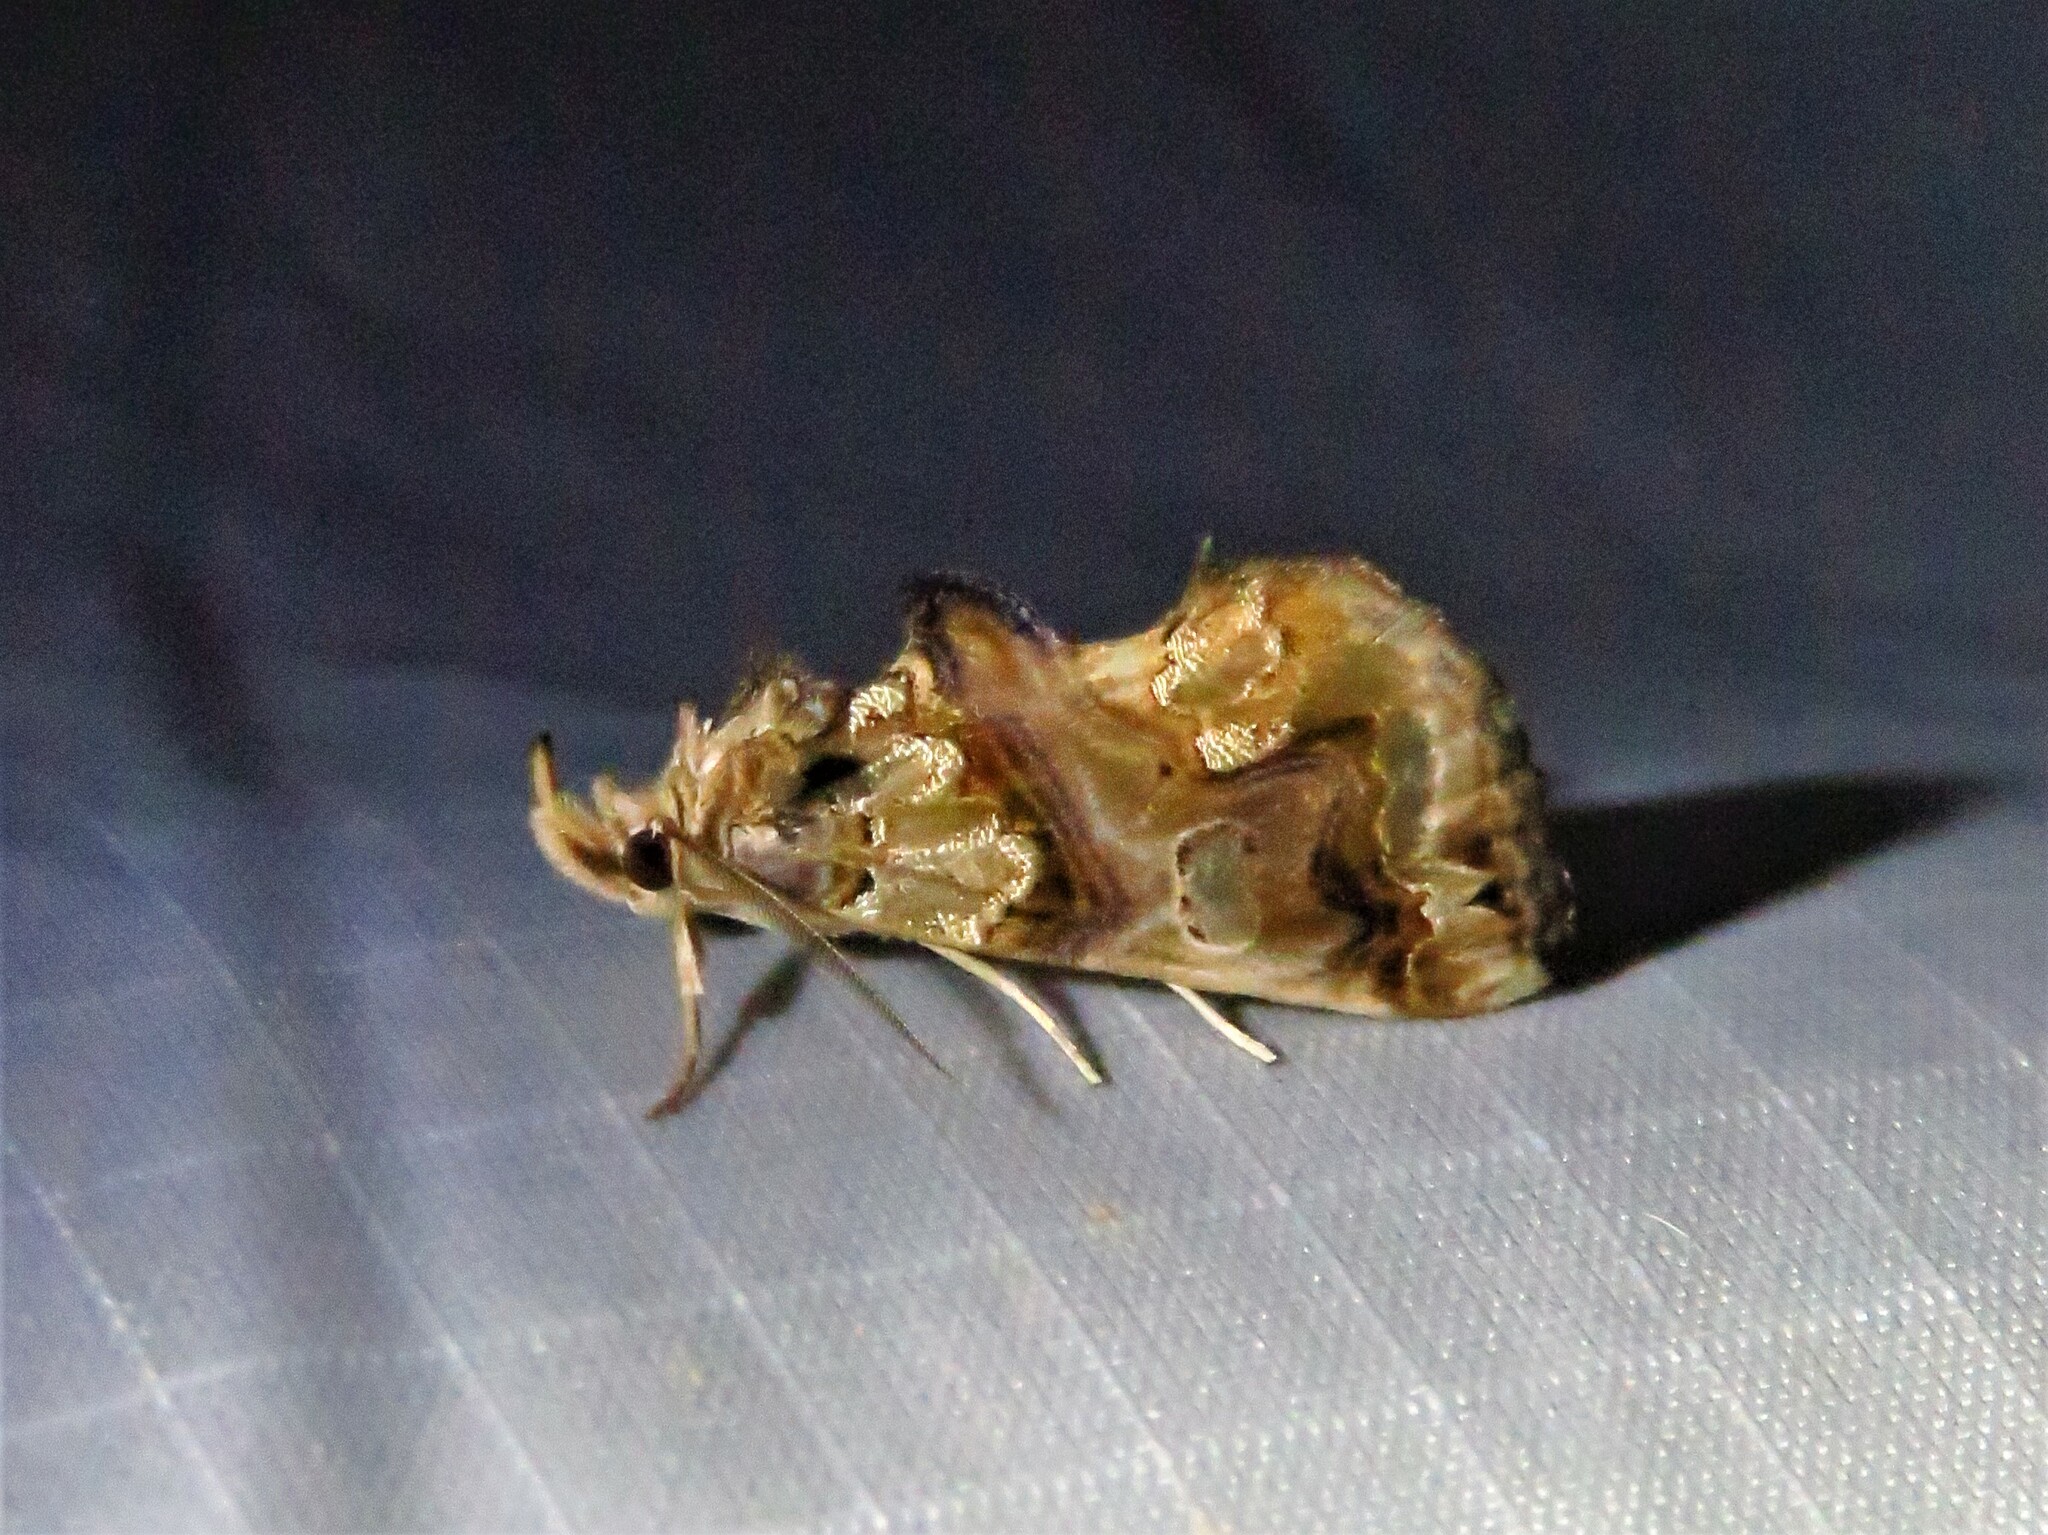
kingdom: Animalia
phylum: Arthropoda
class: Insecta
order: Lepidoptera
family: Erebidae
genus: Plusiodonta
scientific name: Plusiodonta compressipalpis
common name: Moonseed moth
